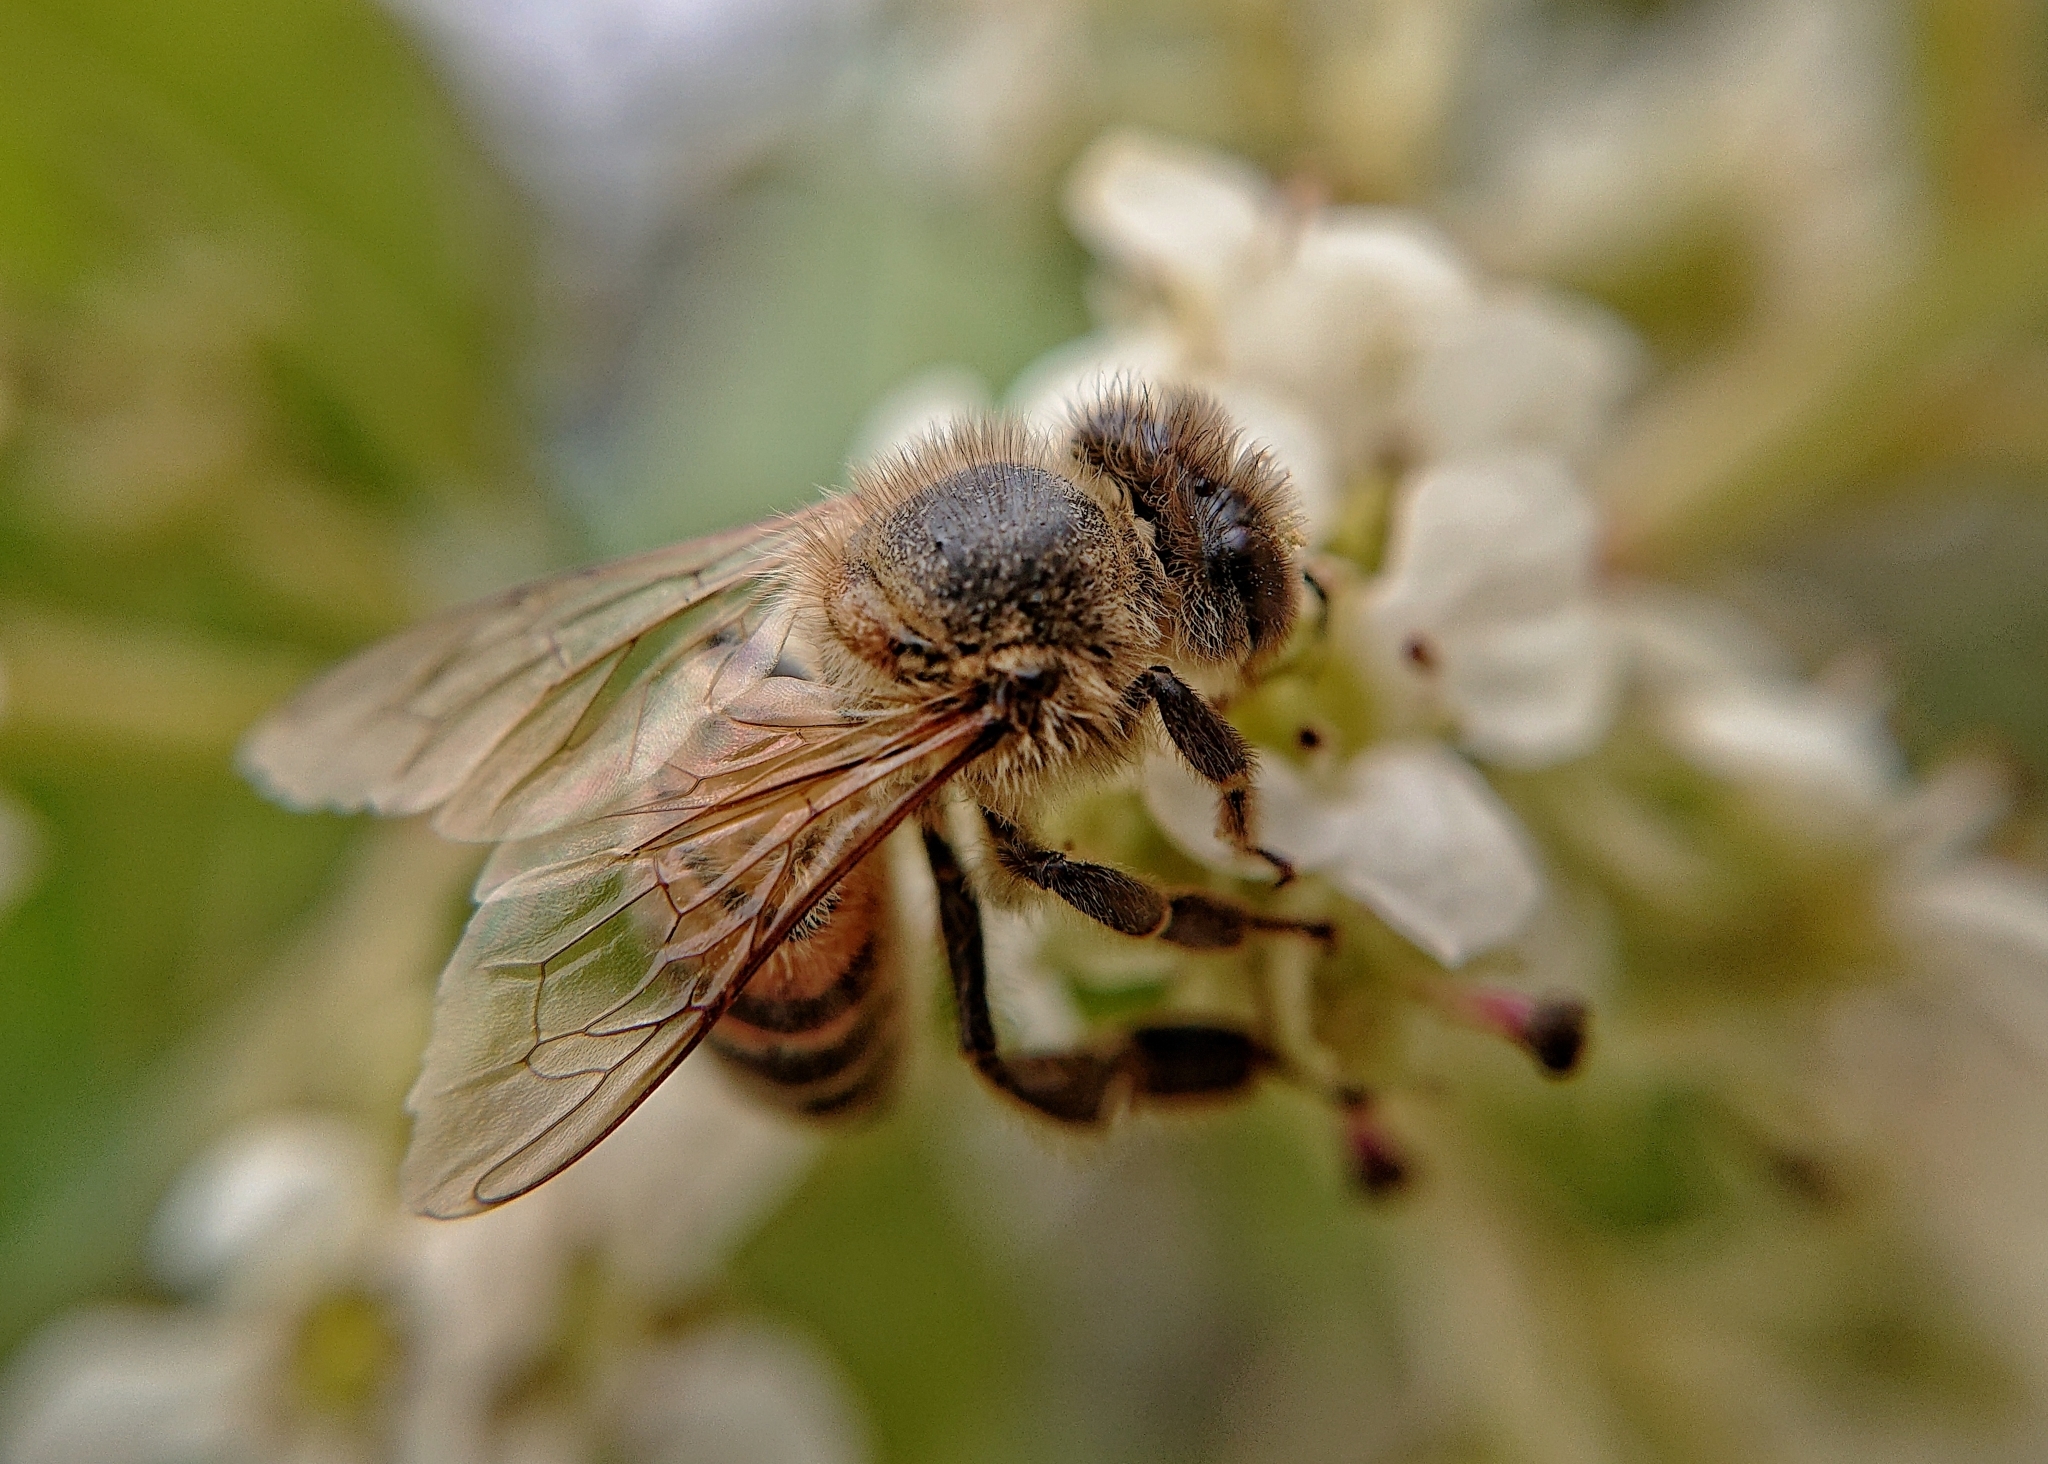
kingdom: Animalia
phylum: Arthropoda
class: Insecta
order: Hymenoptera
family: Apidae
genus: Apis
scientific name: Apis mellifera
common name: Honey bee
